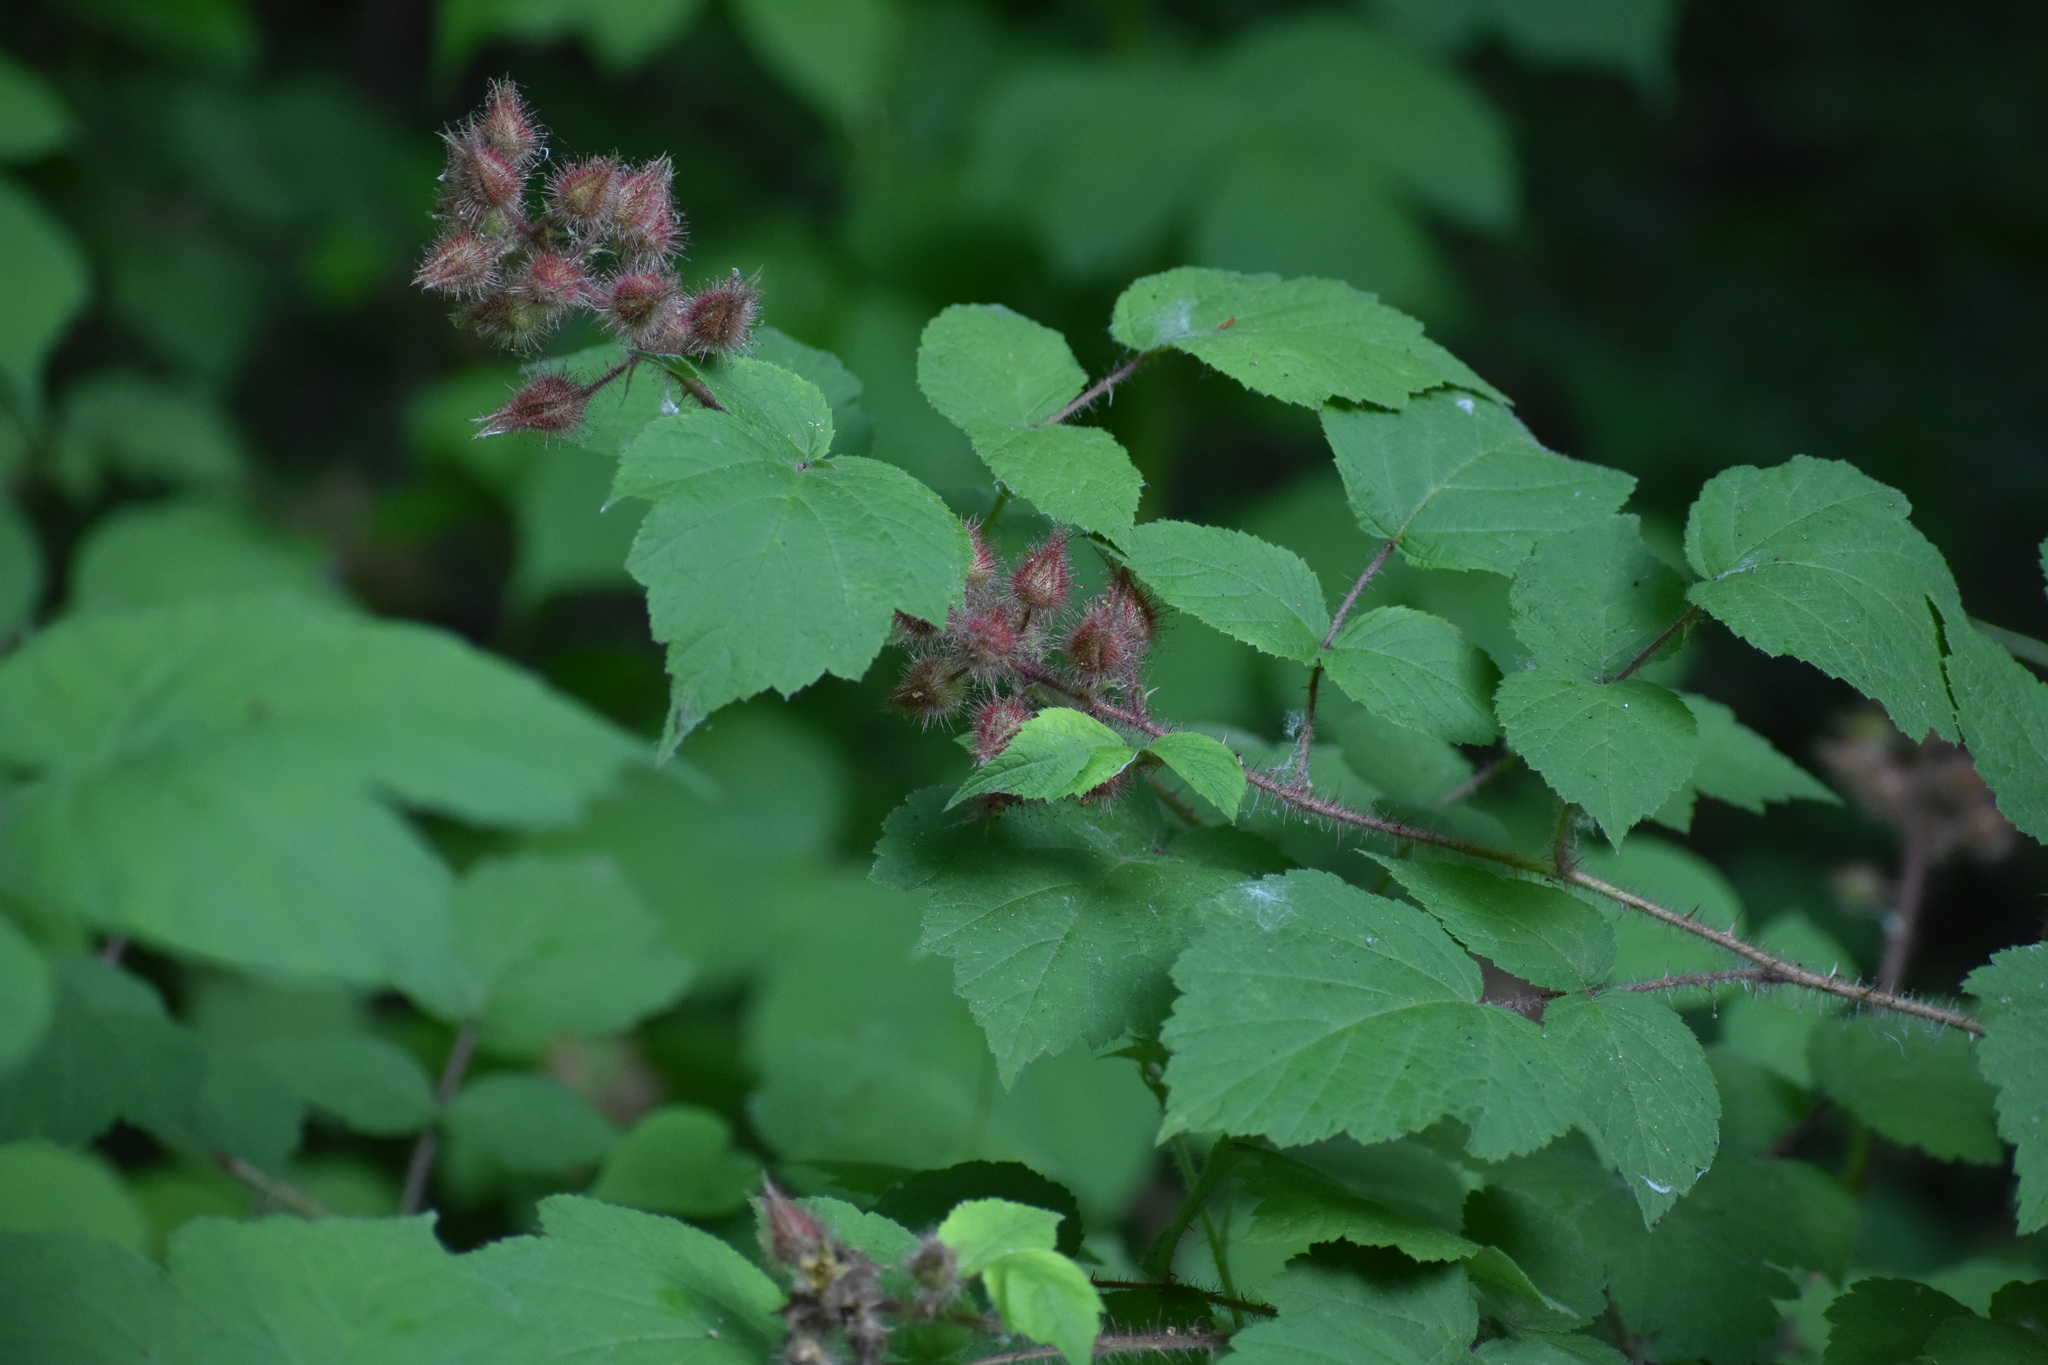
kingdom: Plantae
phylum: Tracheophyta
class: Magnoliopsida
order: Rosales
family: Rosaceae
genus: Rubus
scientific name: Rubus phoenicolasius
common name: Japanese wineberry
